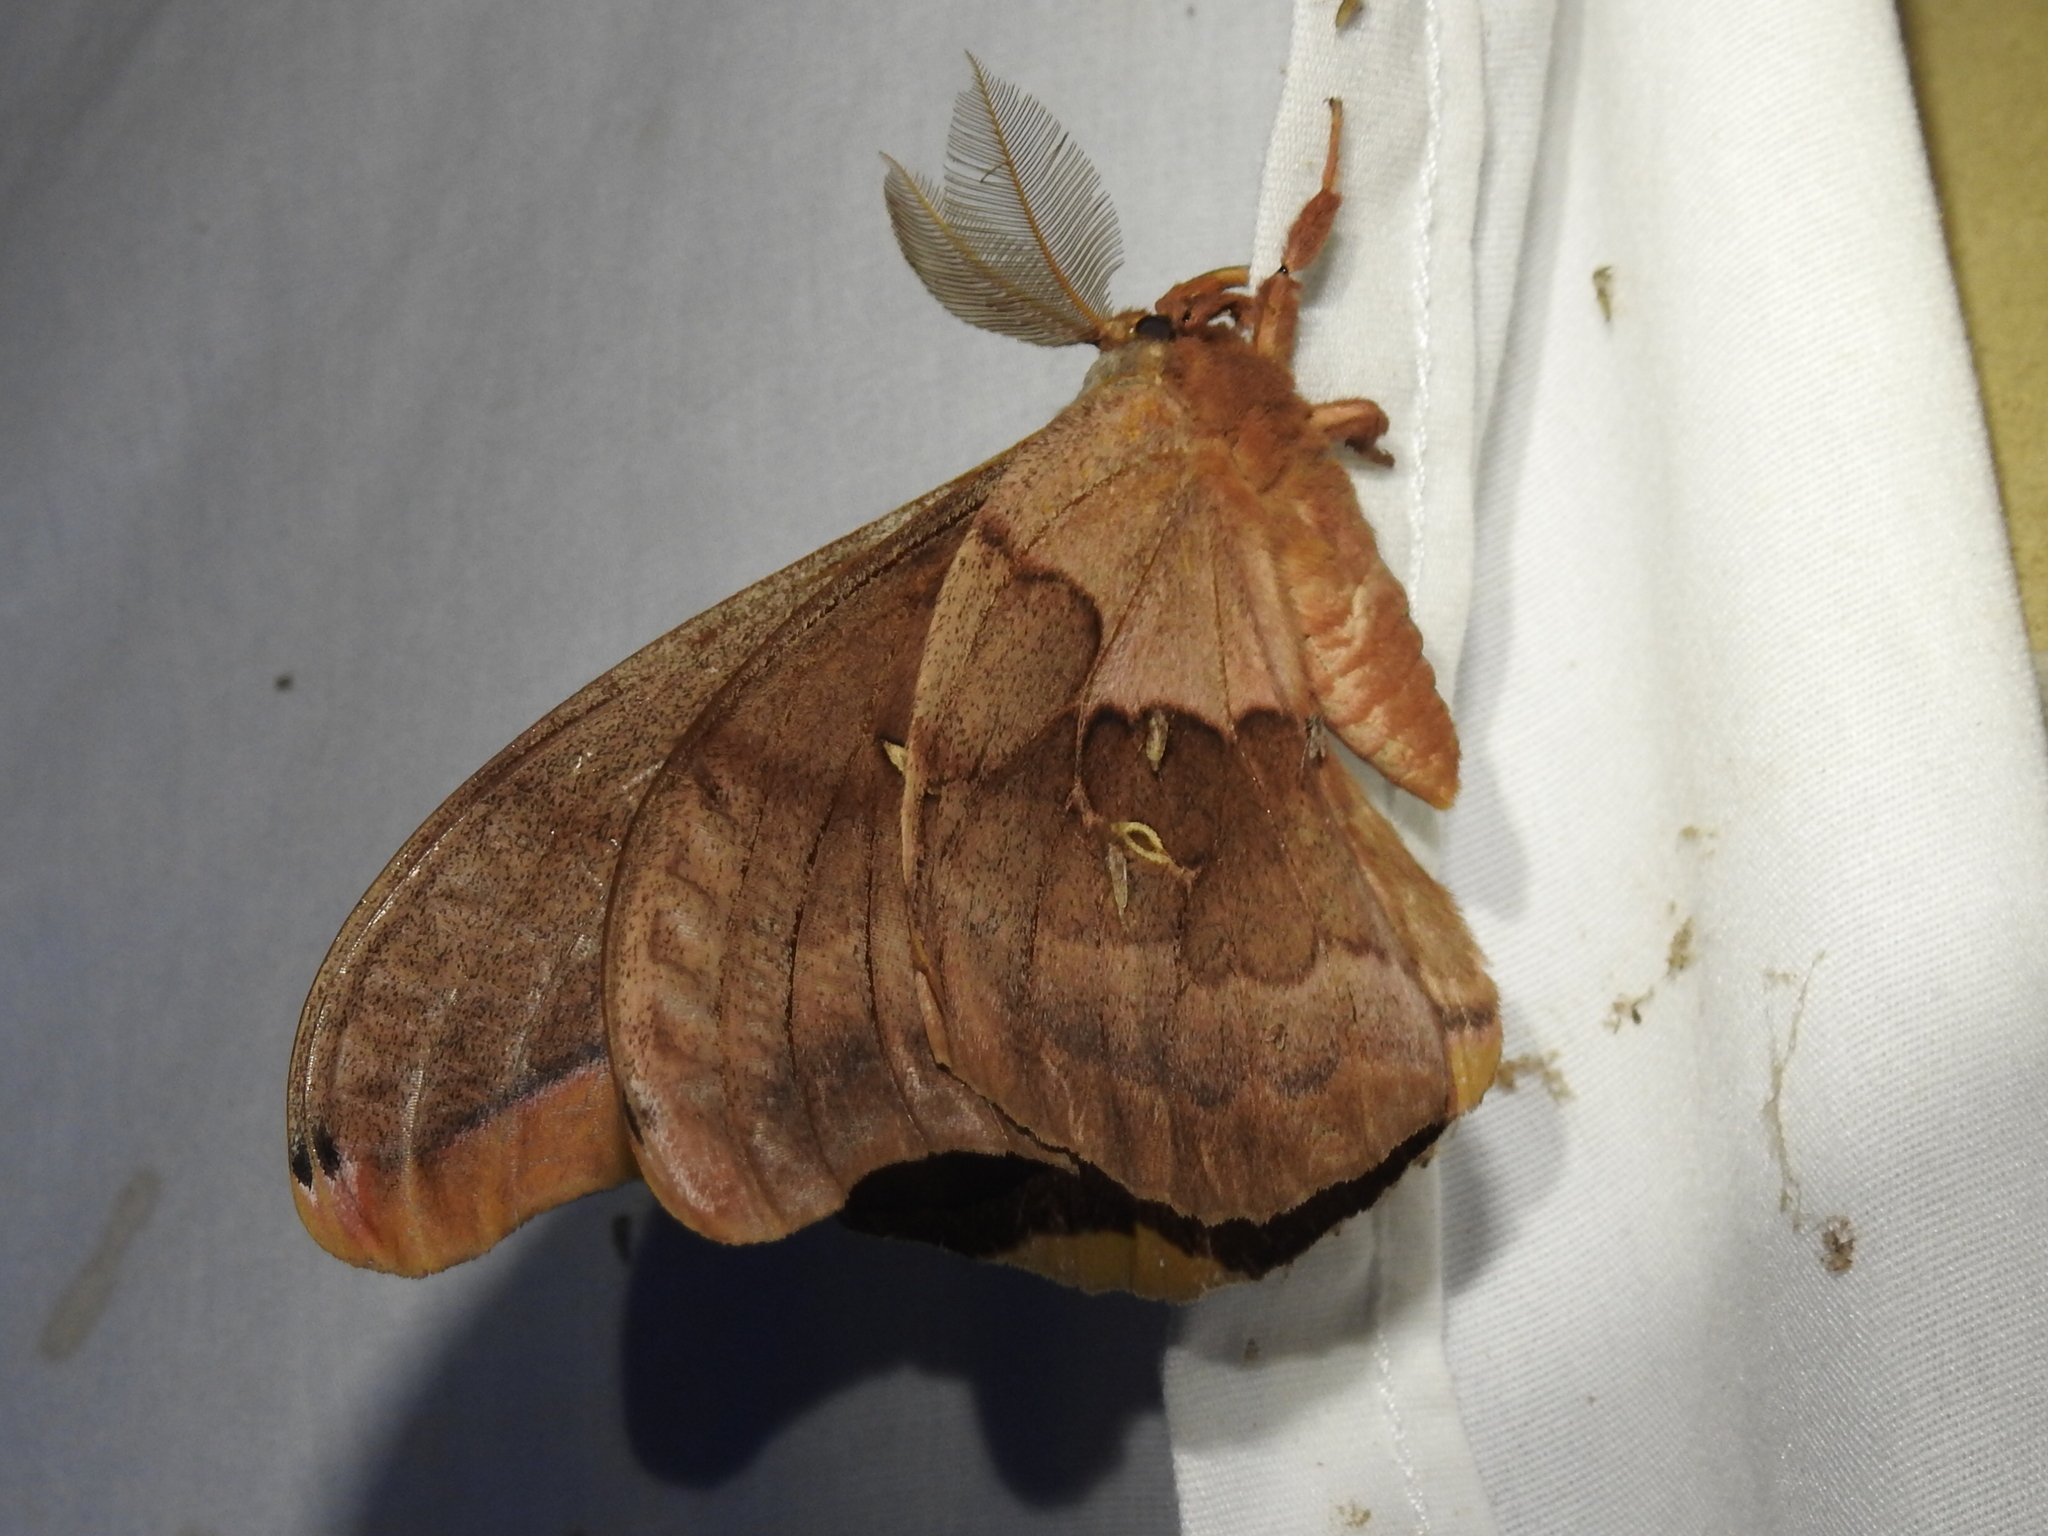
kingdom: Animalia
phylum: Arthropoda
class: Insecta
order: Lepidoptera
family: Saturniidae
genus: Antheraea
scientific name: Antheraea polyphemus
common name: Polyphemus moth
